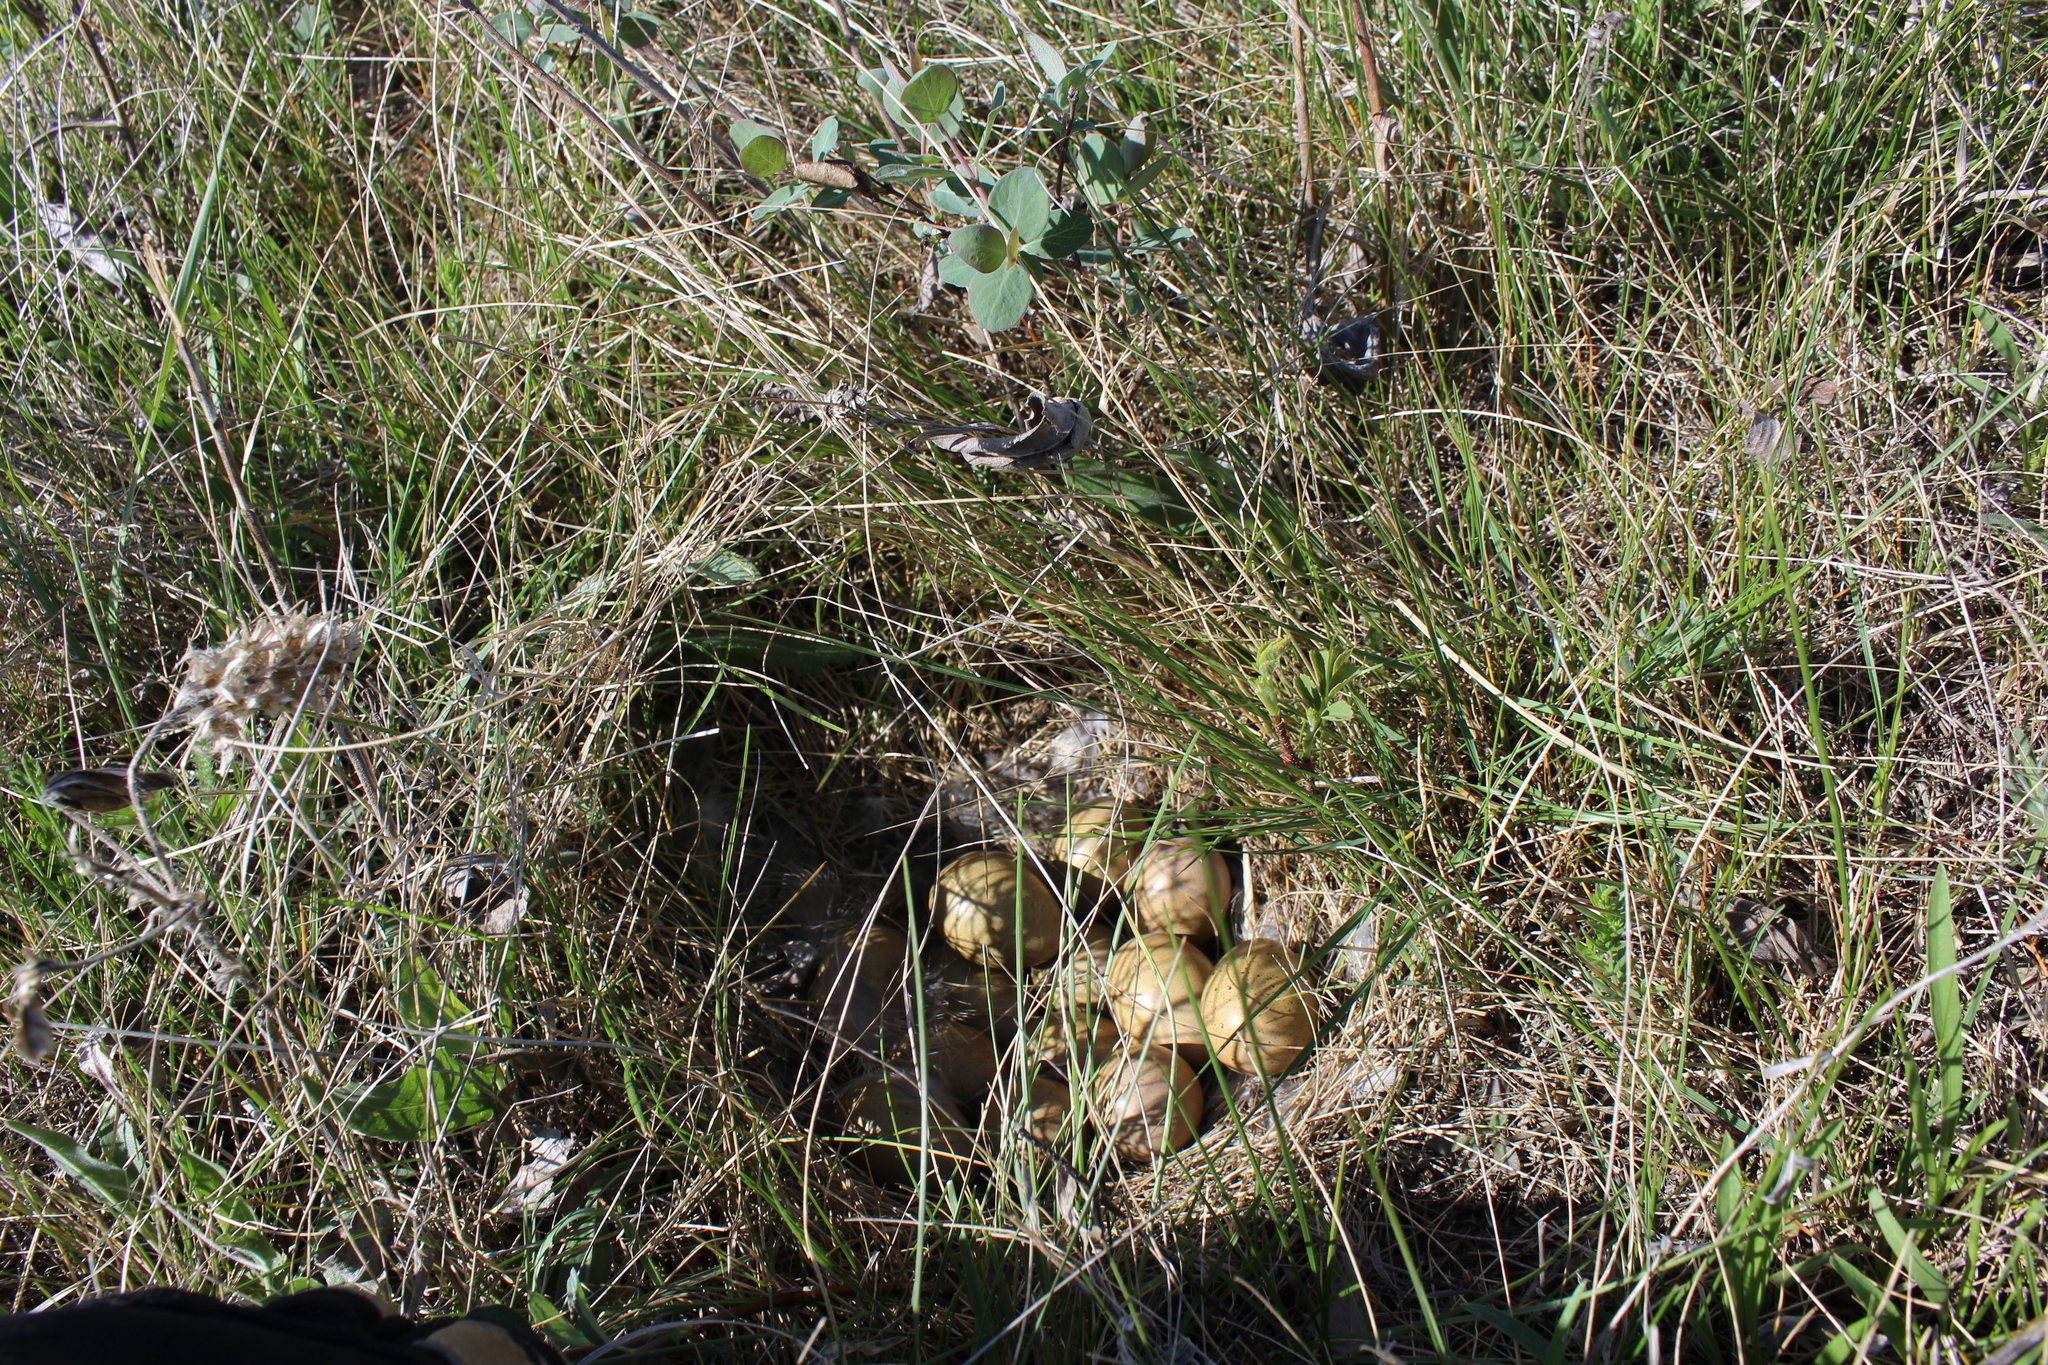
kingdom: Animalia
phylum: Chordata
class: Aves
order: Galliformes
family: Phasianidae
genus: Tympanuchus
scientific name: Tympanuchus phasianellus
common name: Sharp-tailed grouse
